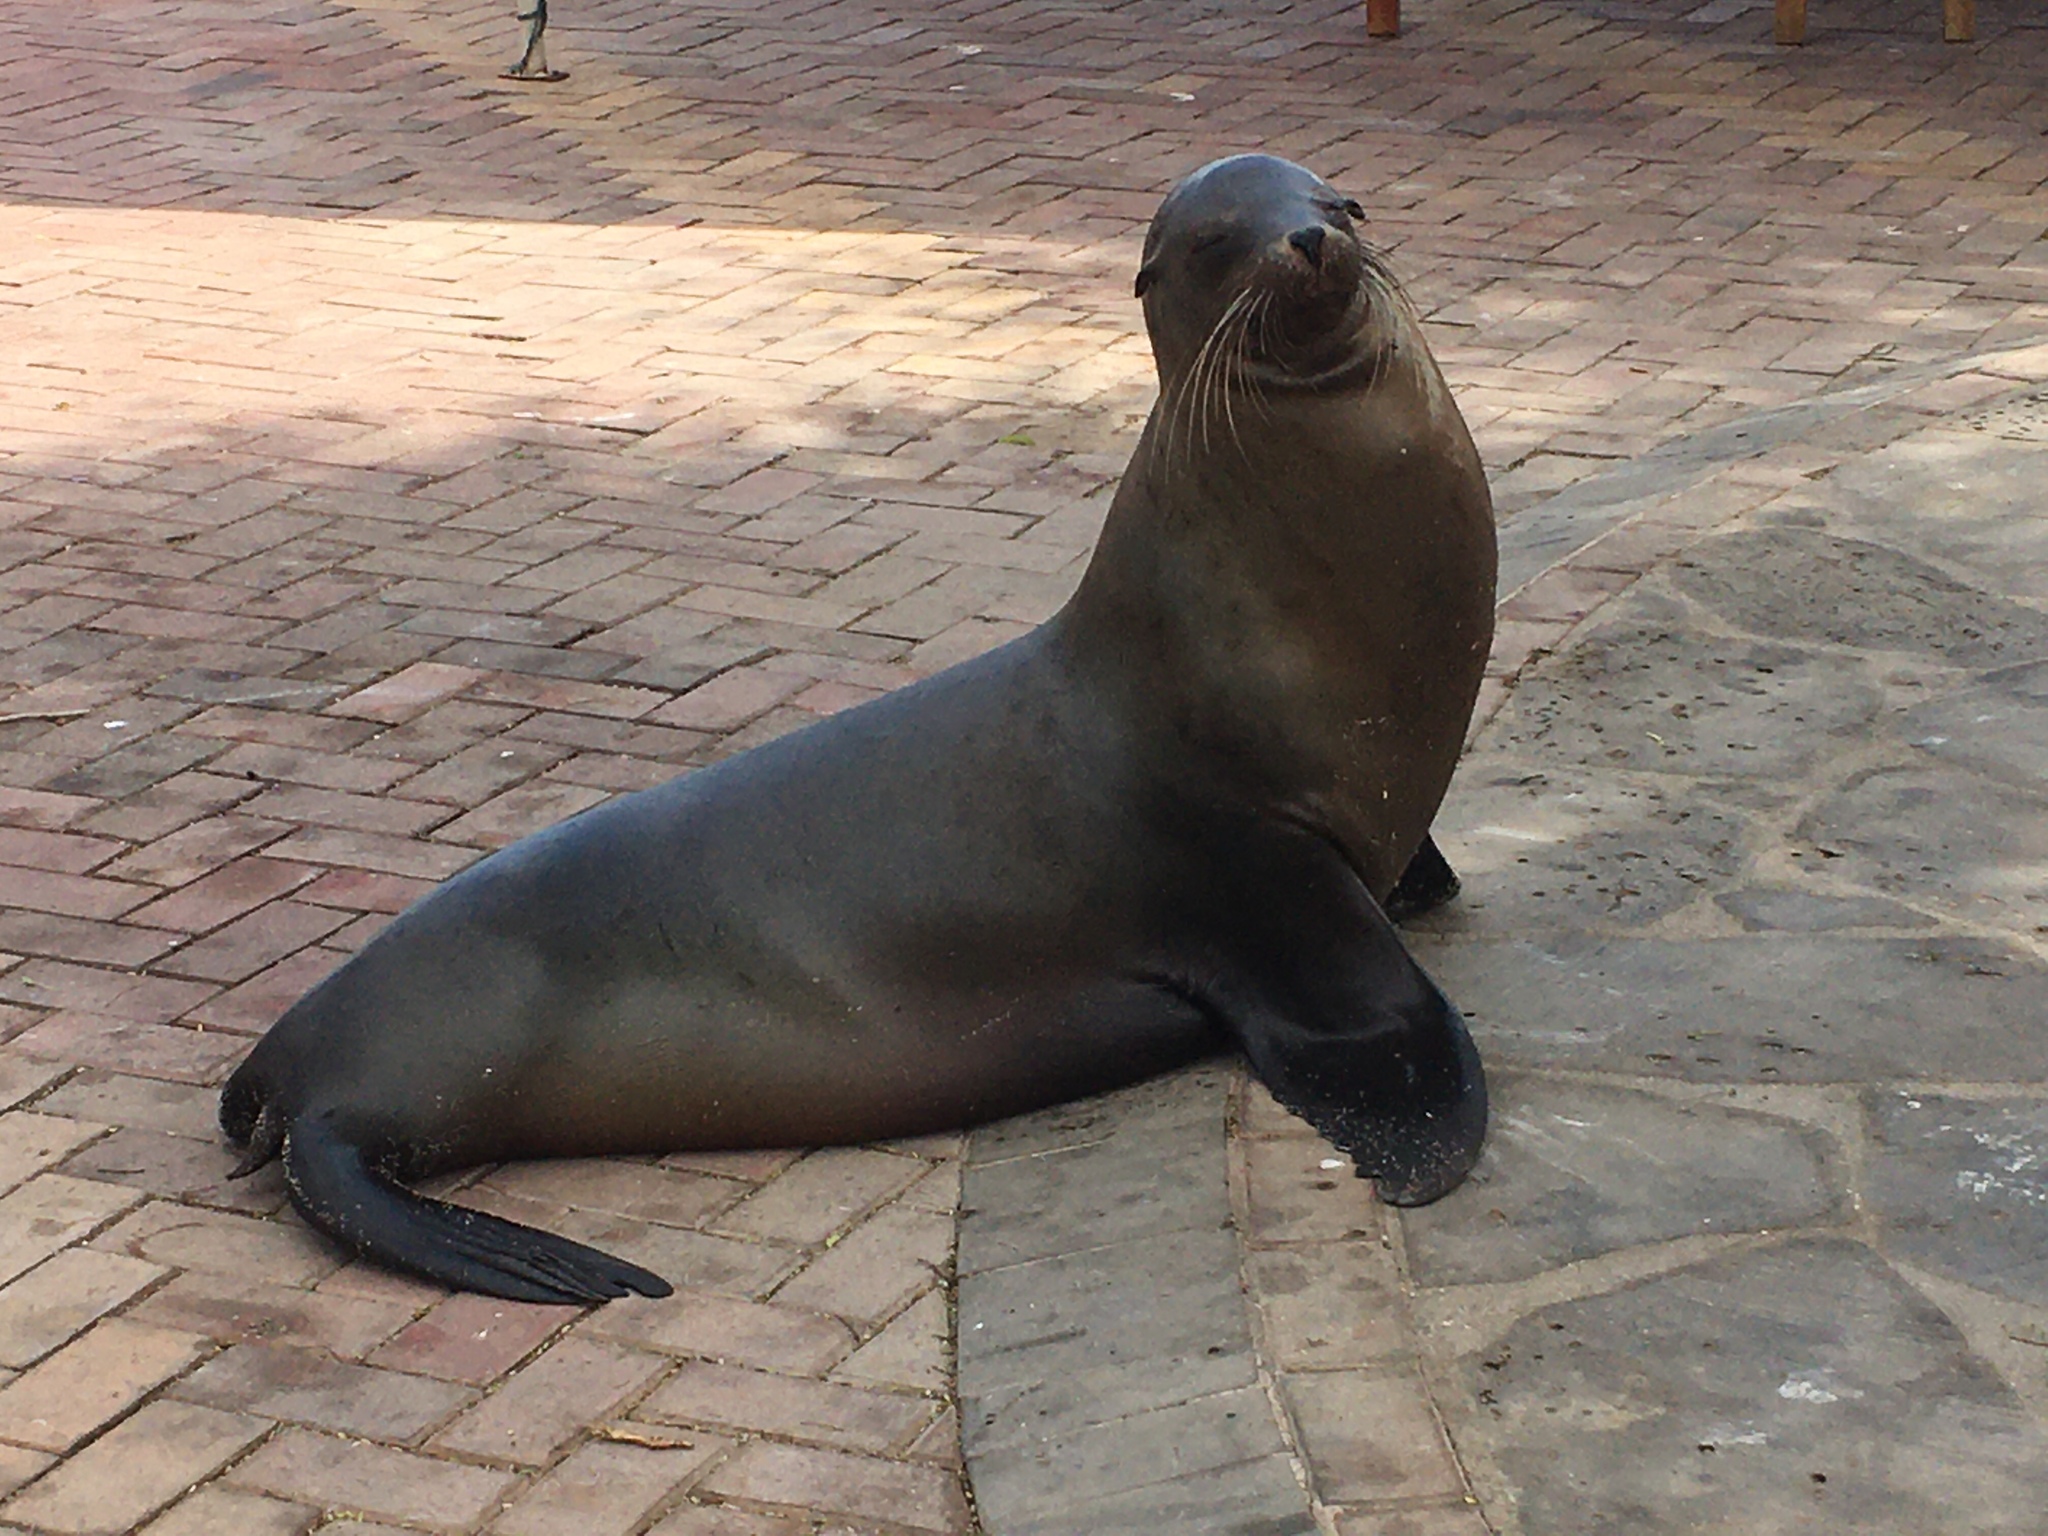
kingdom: Animalia
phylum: Chordata
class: Mammalia
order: Carnivora
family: Otariidae
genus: Zalophus
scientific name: Zalophus wollebaeki
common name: Galapagos sea lion
